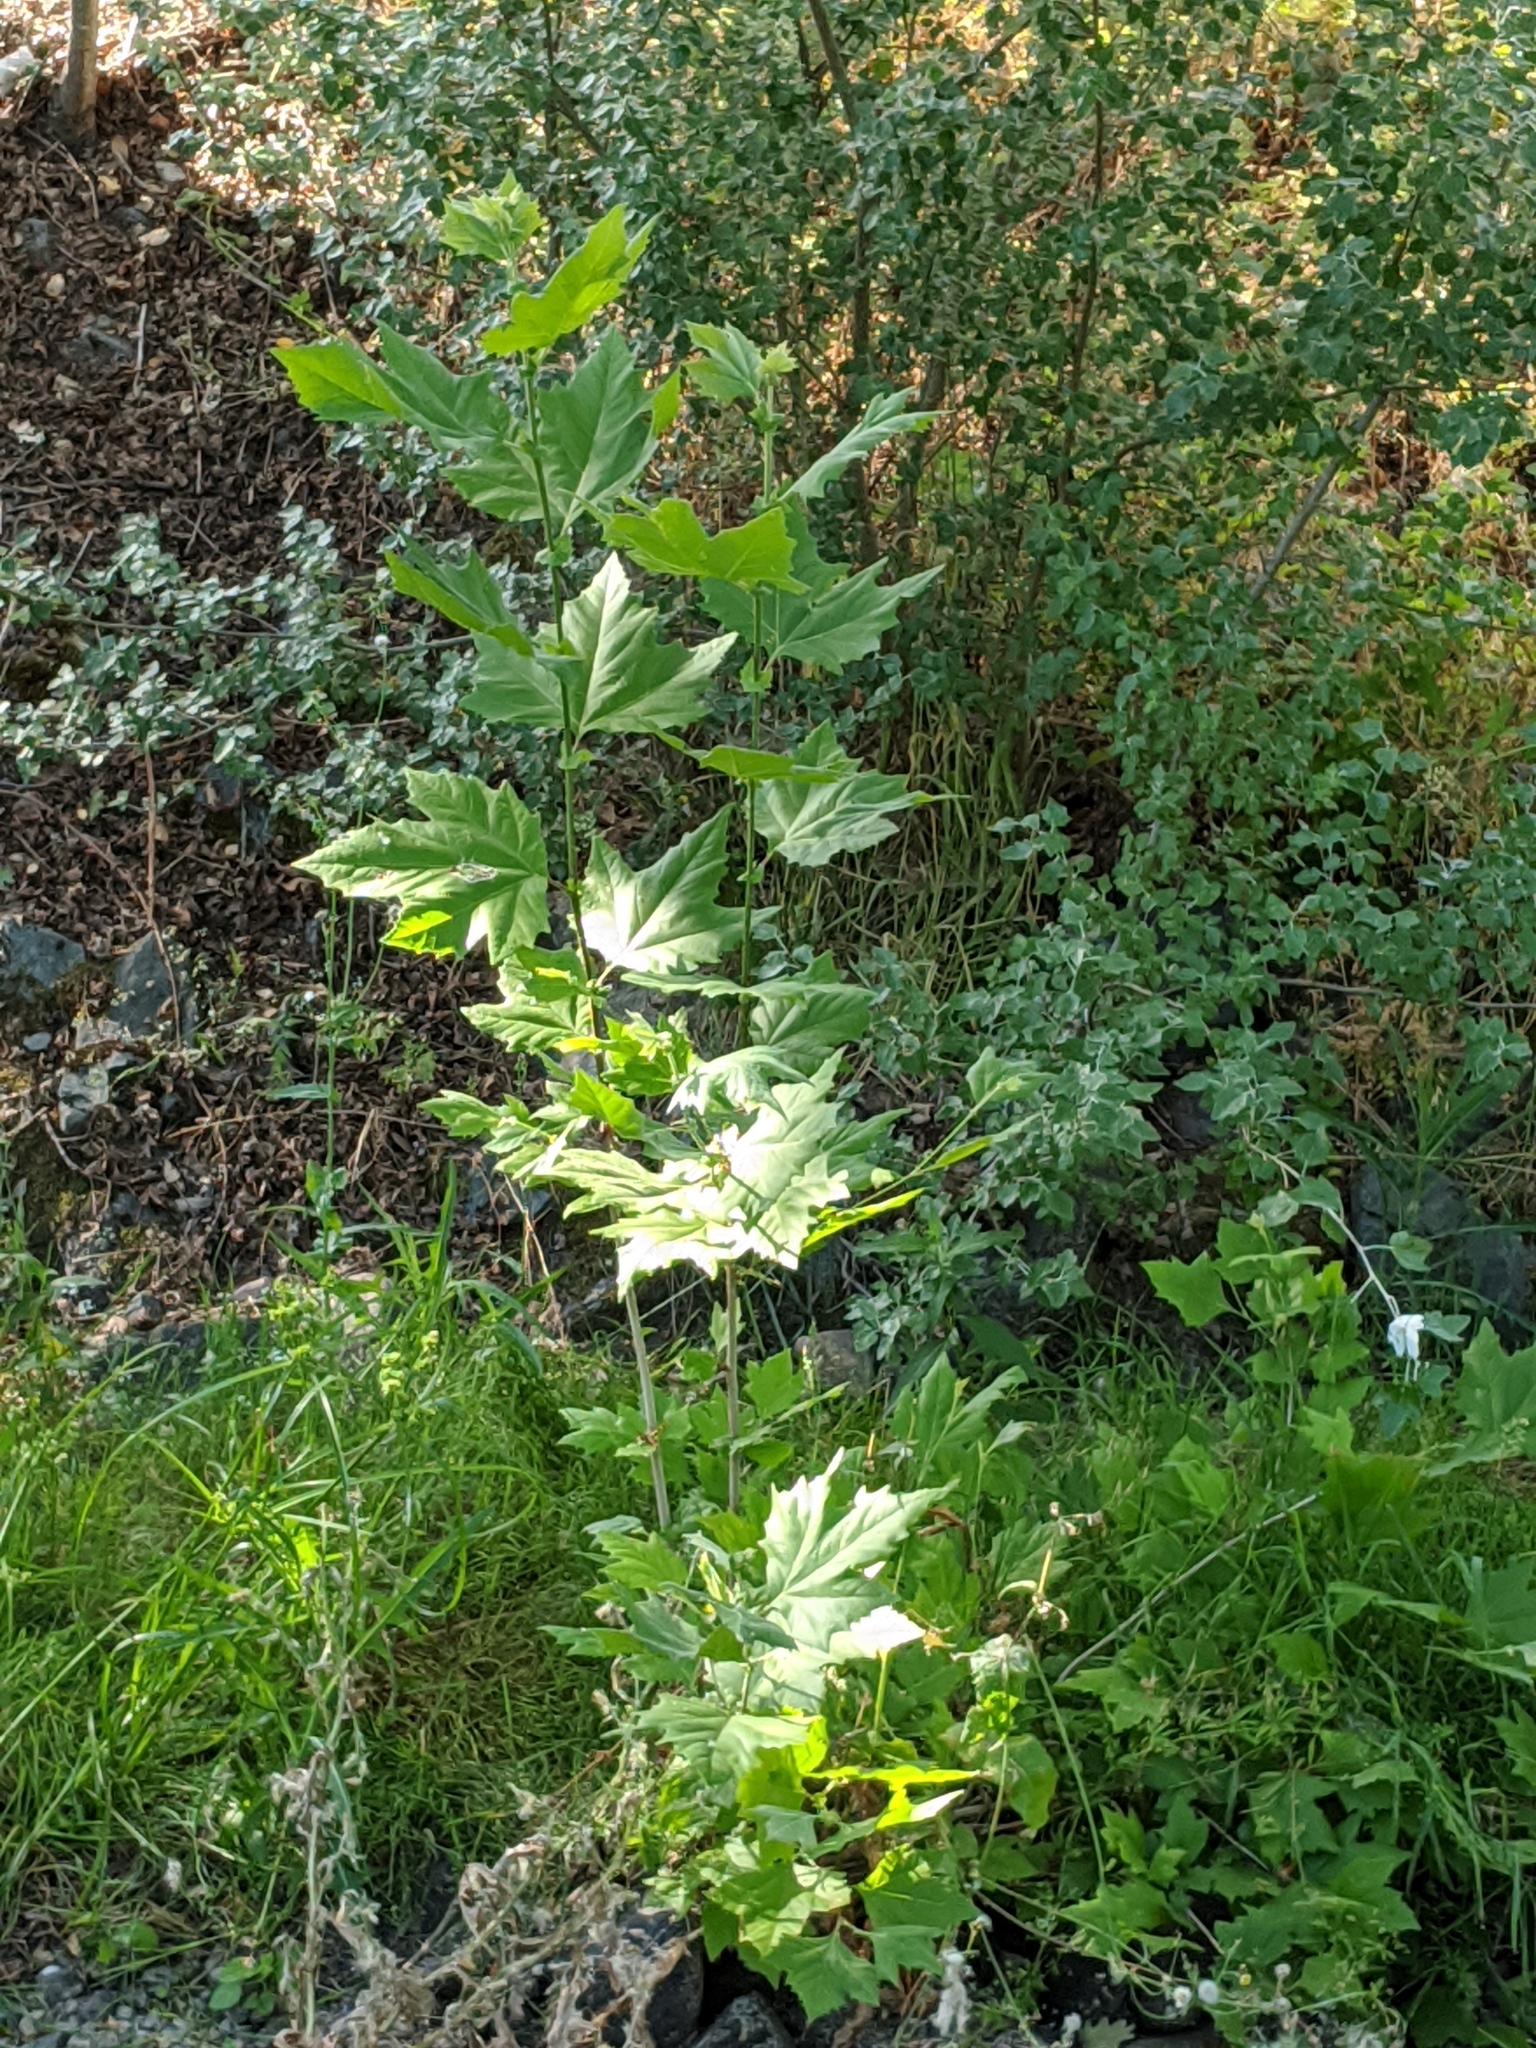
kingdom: Plantae
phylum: Tracheophyta
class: Magnoliopsida
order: Proteales
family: Platanaceae
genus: Platanus
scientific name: Platanus racemosa
